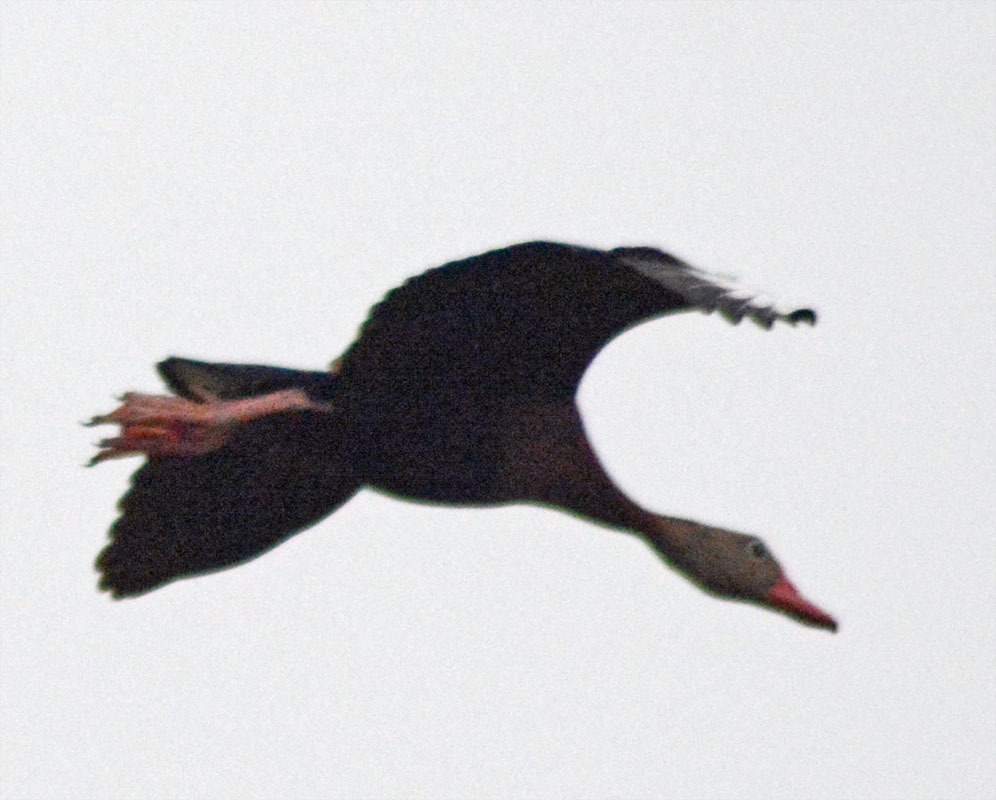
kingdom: Animalia
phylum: Chordata
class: Aves
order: Anseriformes
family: Anatidae
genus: Dendrocygna
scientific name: Dendrocygna autumnalis
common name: Black-bellied whistling duck
